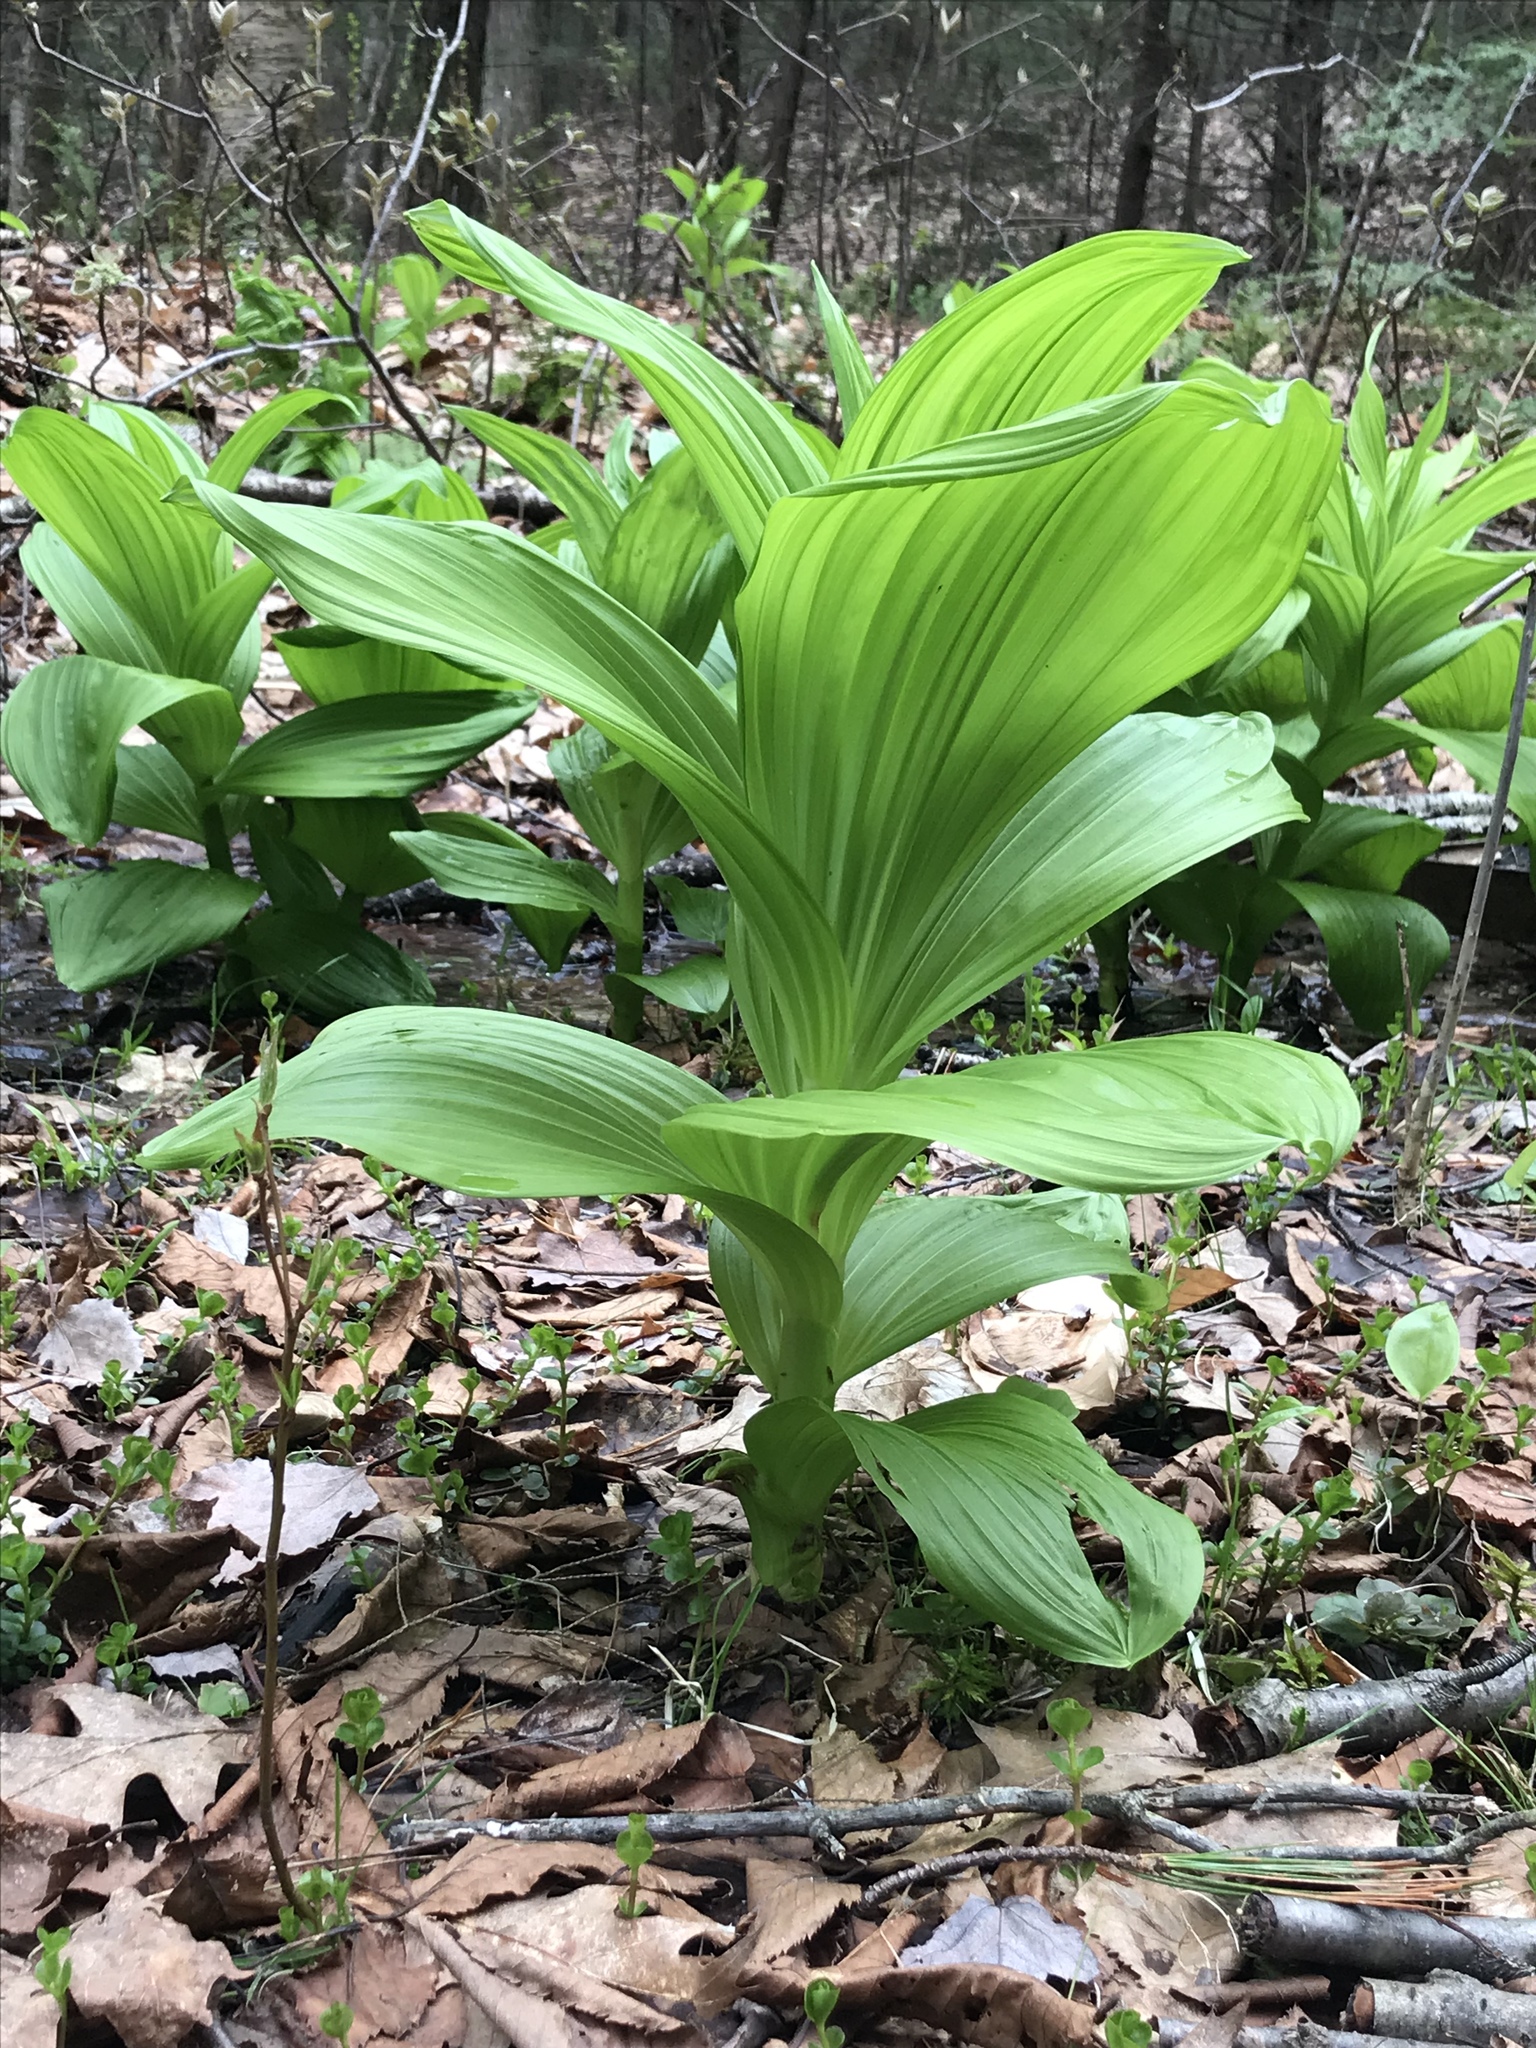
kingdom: Plantae
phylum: Tracheophyta
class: Liliopsida
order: Liliales
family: Melanthiaceae
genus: Veratrum
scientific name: Veratrum viride
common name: American false hellebore
